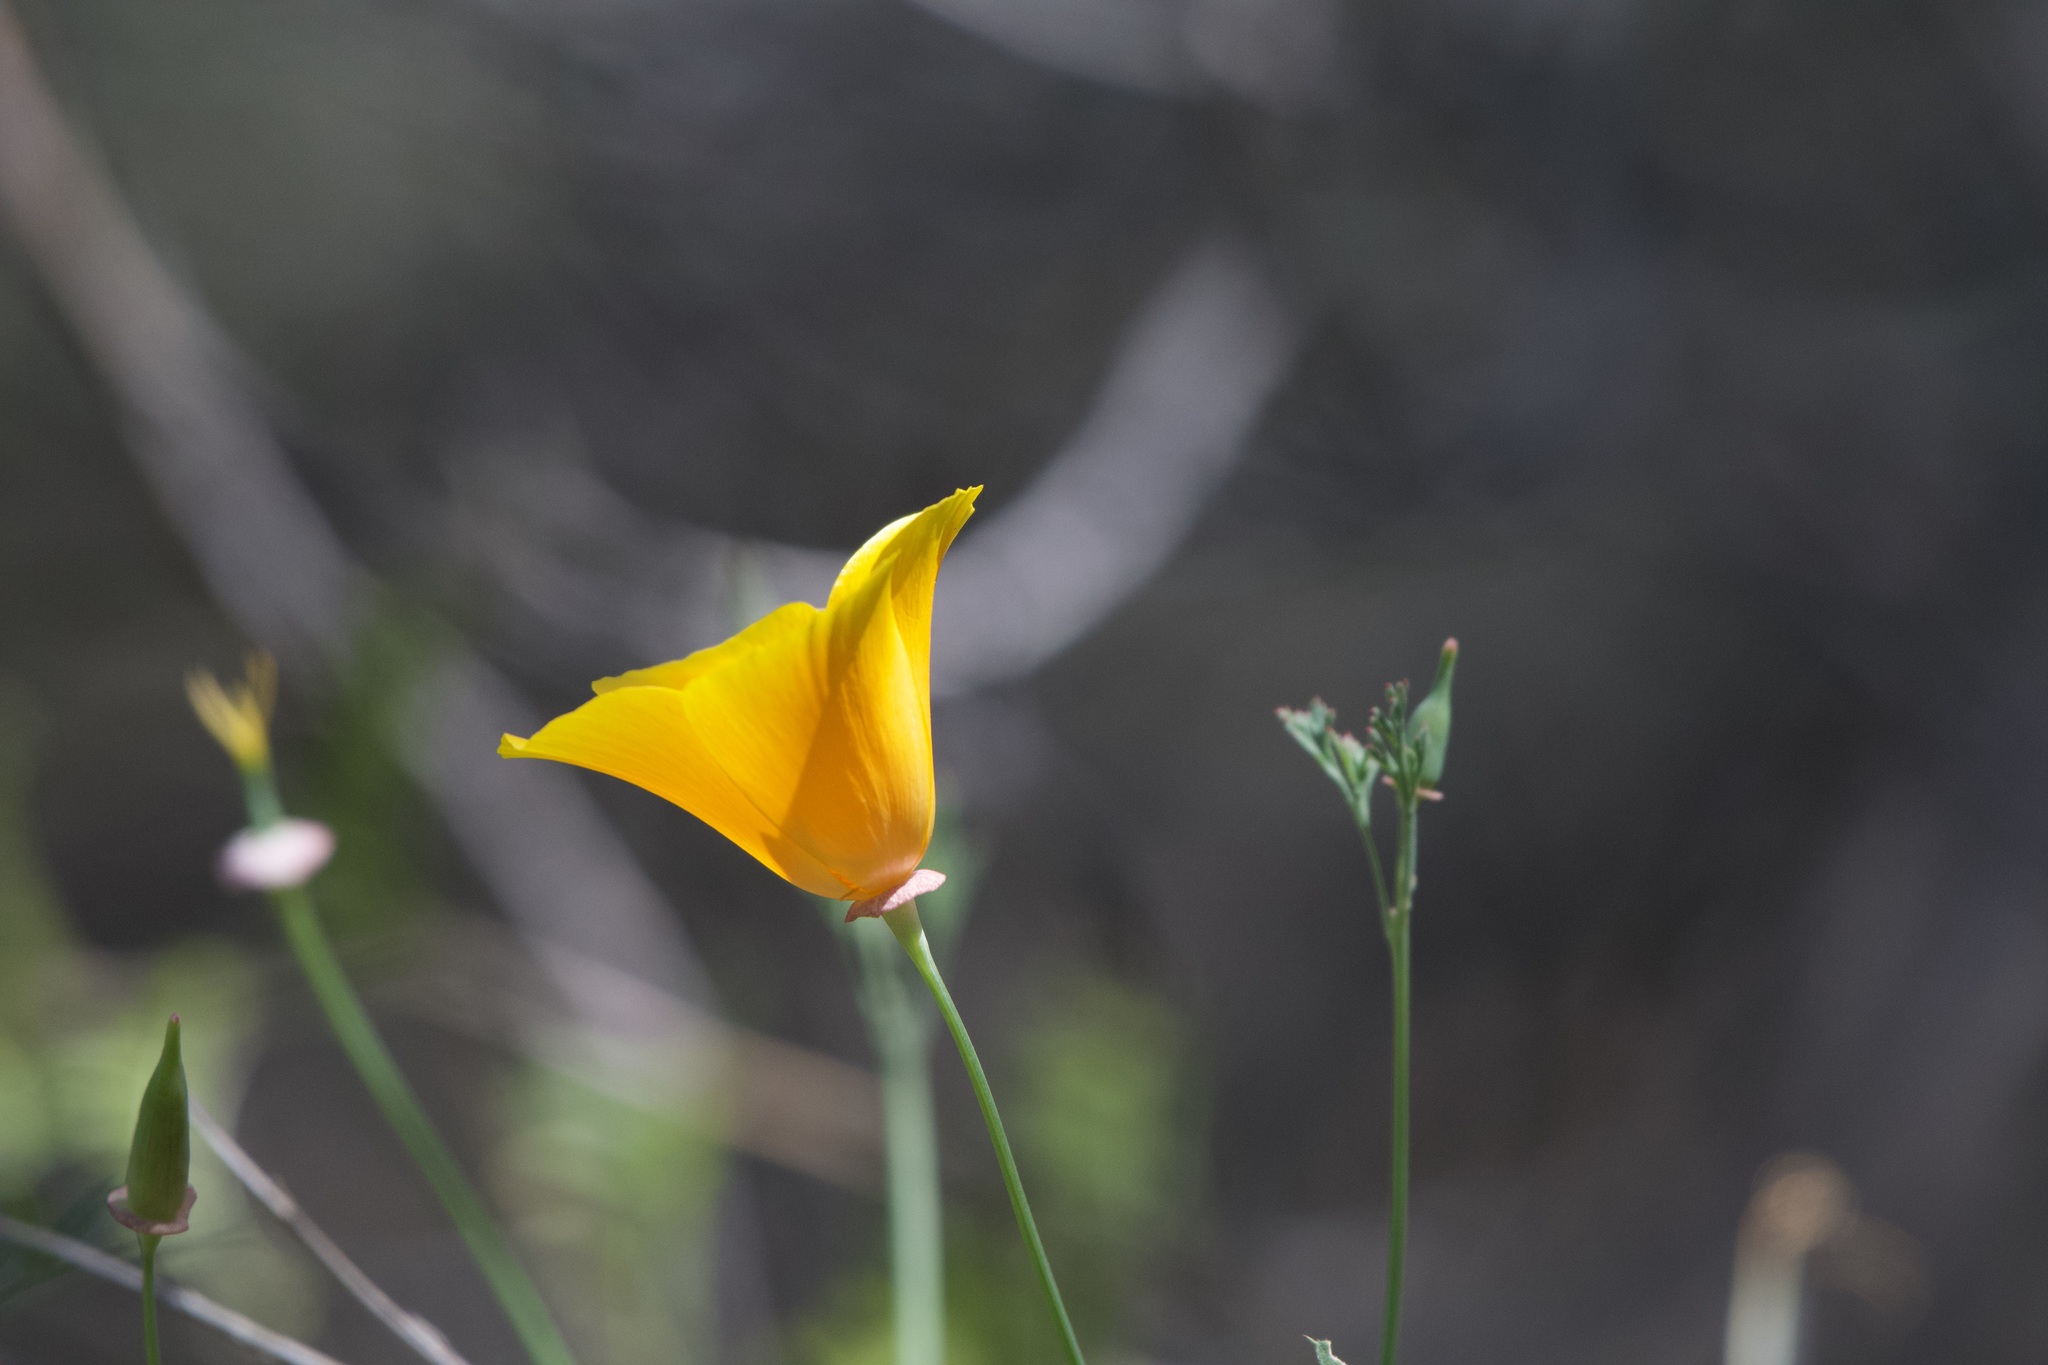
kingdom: Plantae
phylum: Tracheophyta
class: Magnoliopsida
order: Ranunculales
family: Papaveraceae
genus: Eschscholzia
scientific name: Eschscholzia californica
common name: California poppy
